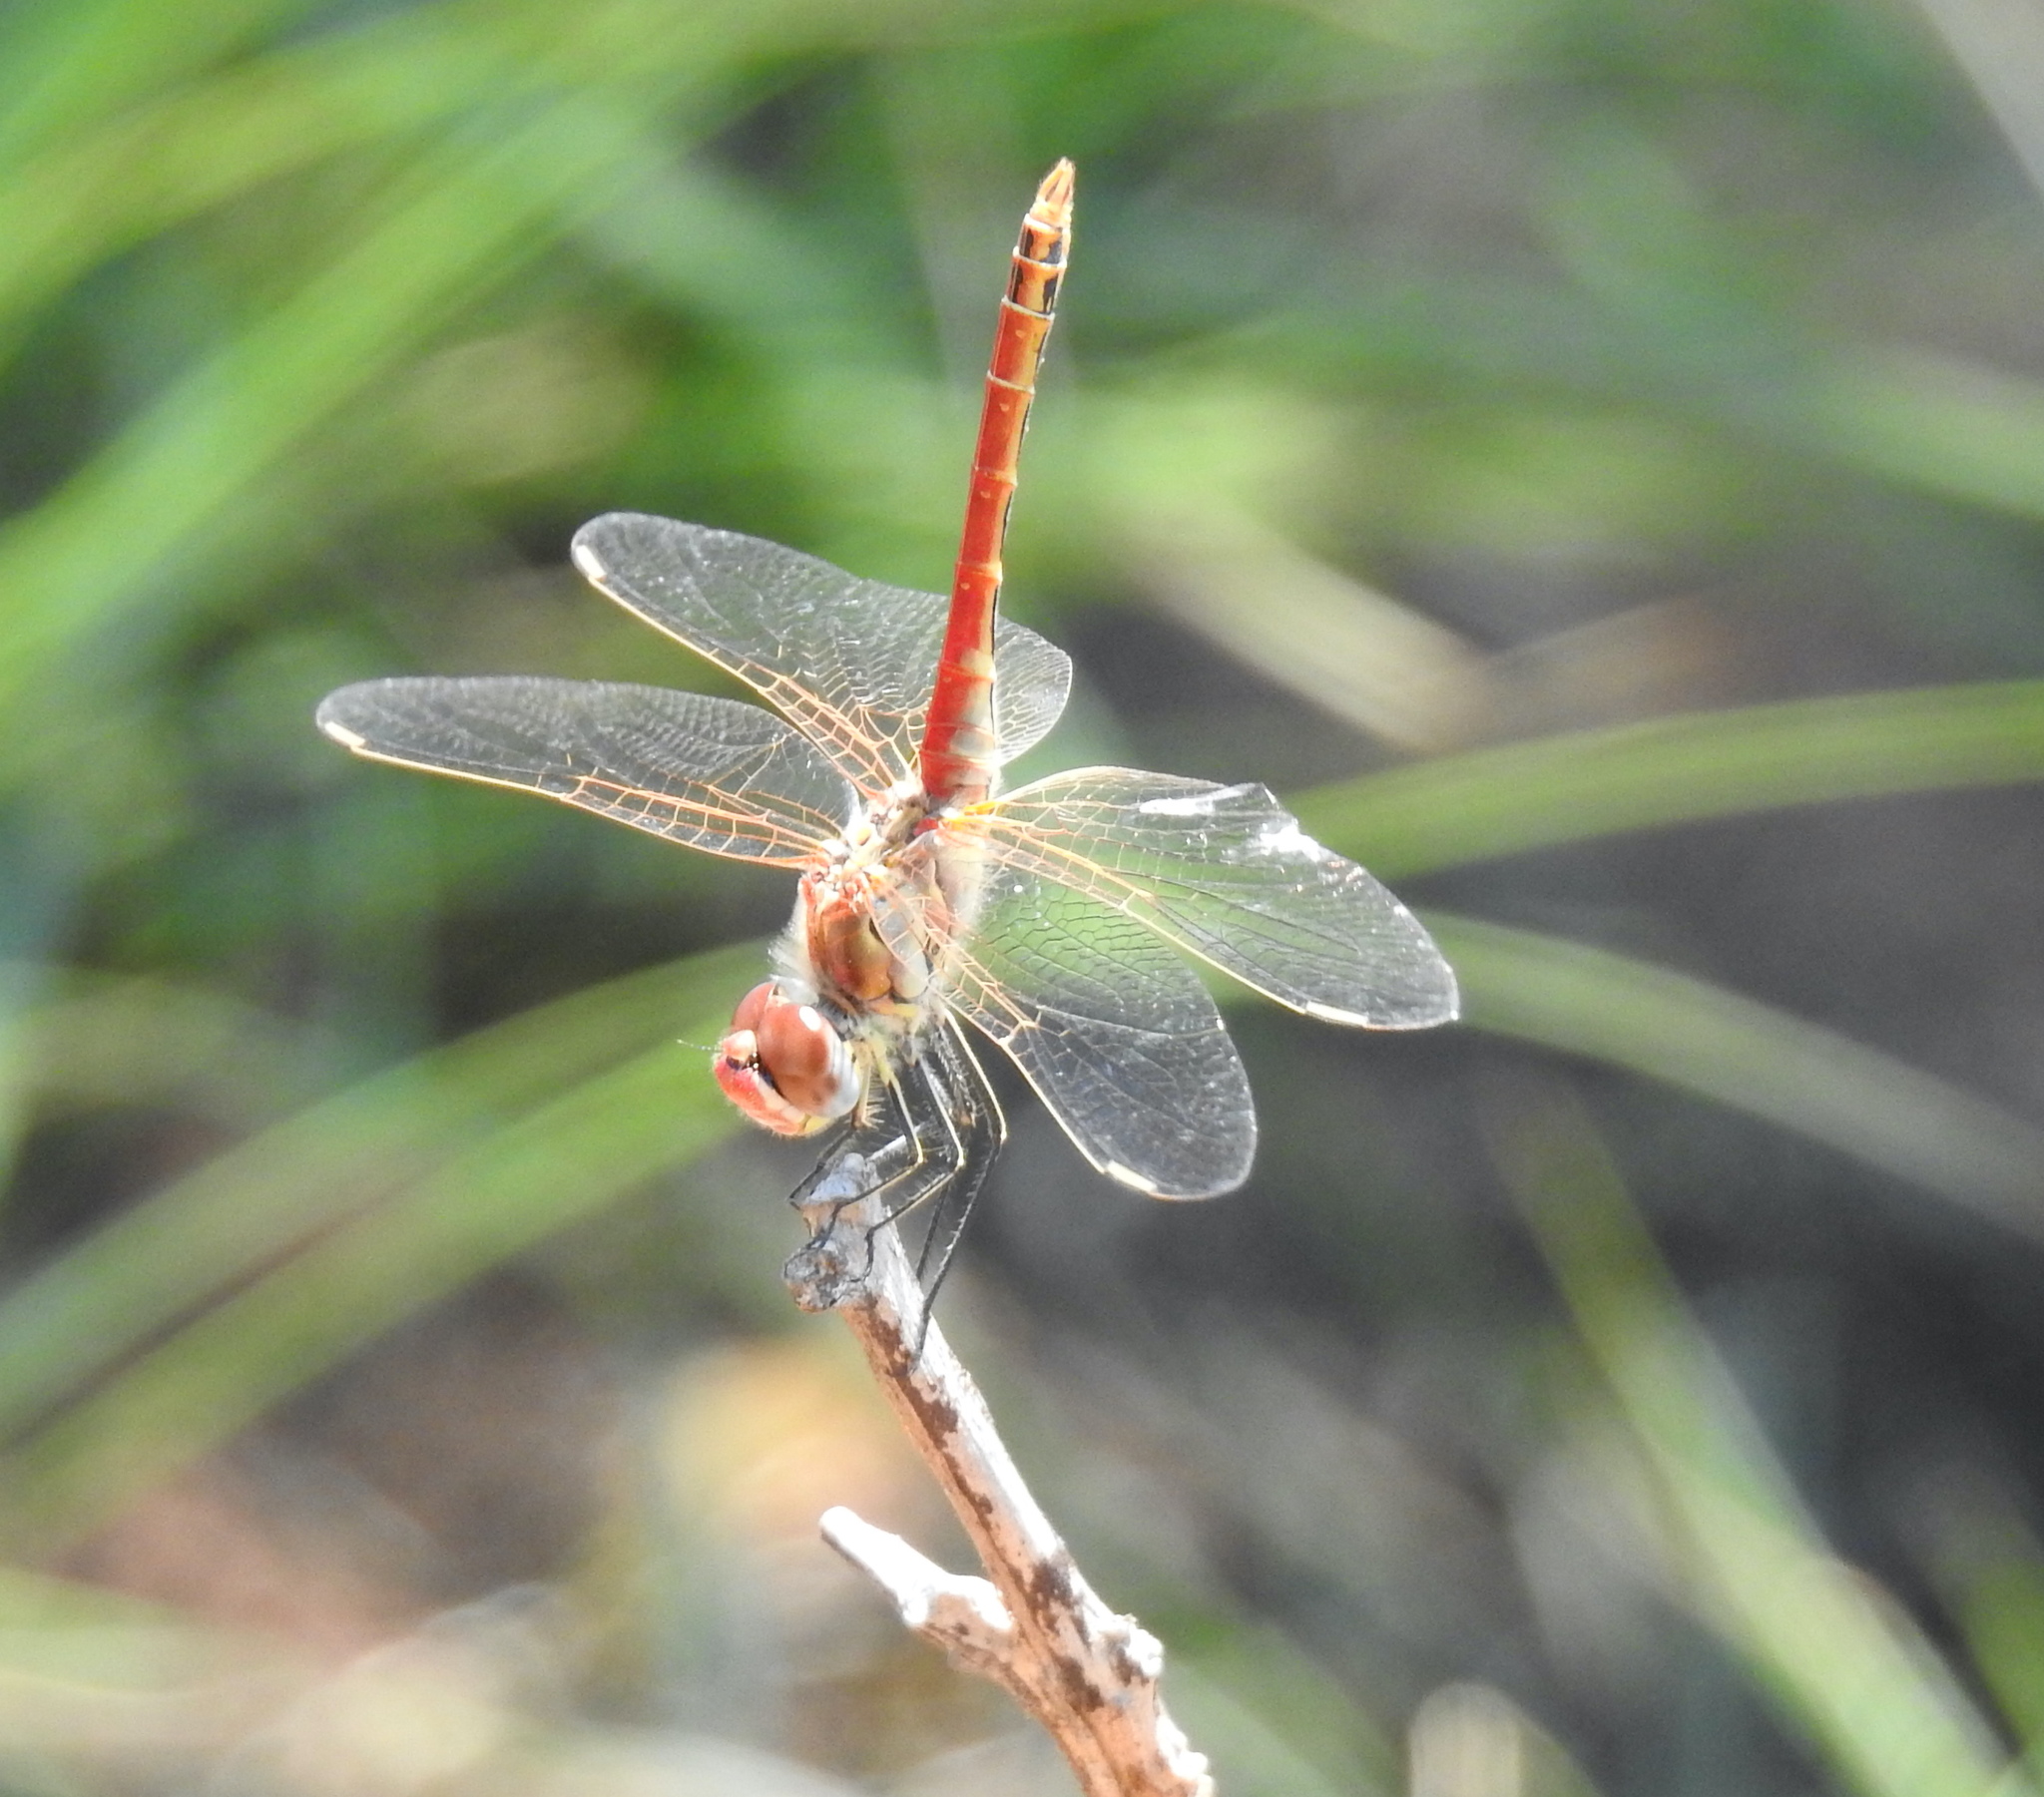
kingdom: Animalia
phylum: Arthropoda
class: Insecta
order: Odonata
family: Libellulidae
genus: Sympetrum
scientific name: Sympetrum fonscolombii
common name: Red-veined darter
